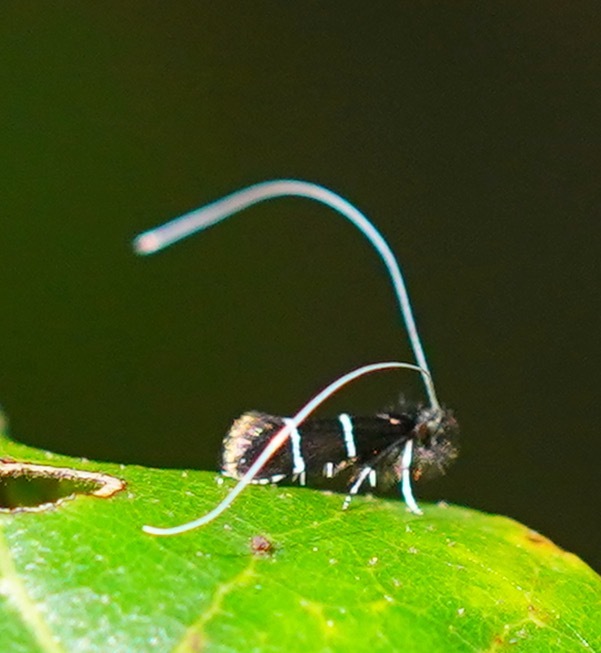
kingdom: Animalia
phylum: Arthropoda
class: Insecta
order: Lepidoptera
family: Adelidae
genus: Adela
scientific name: Adela septentrionella
